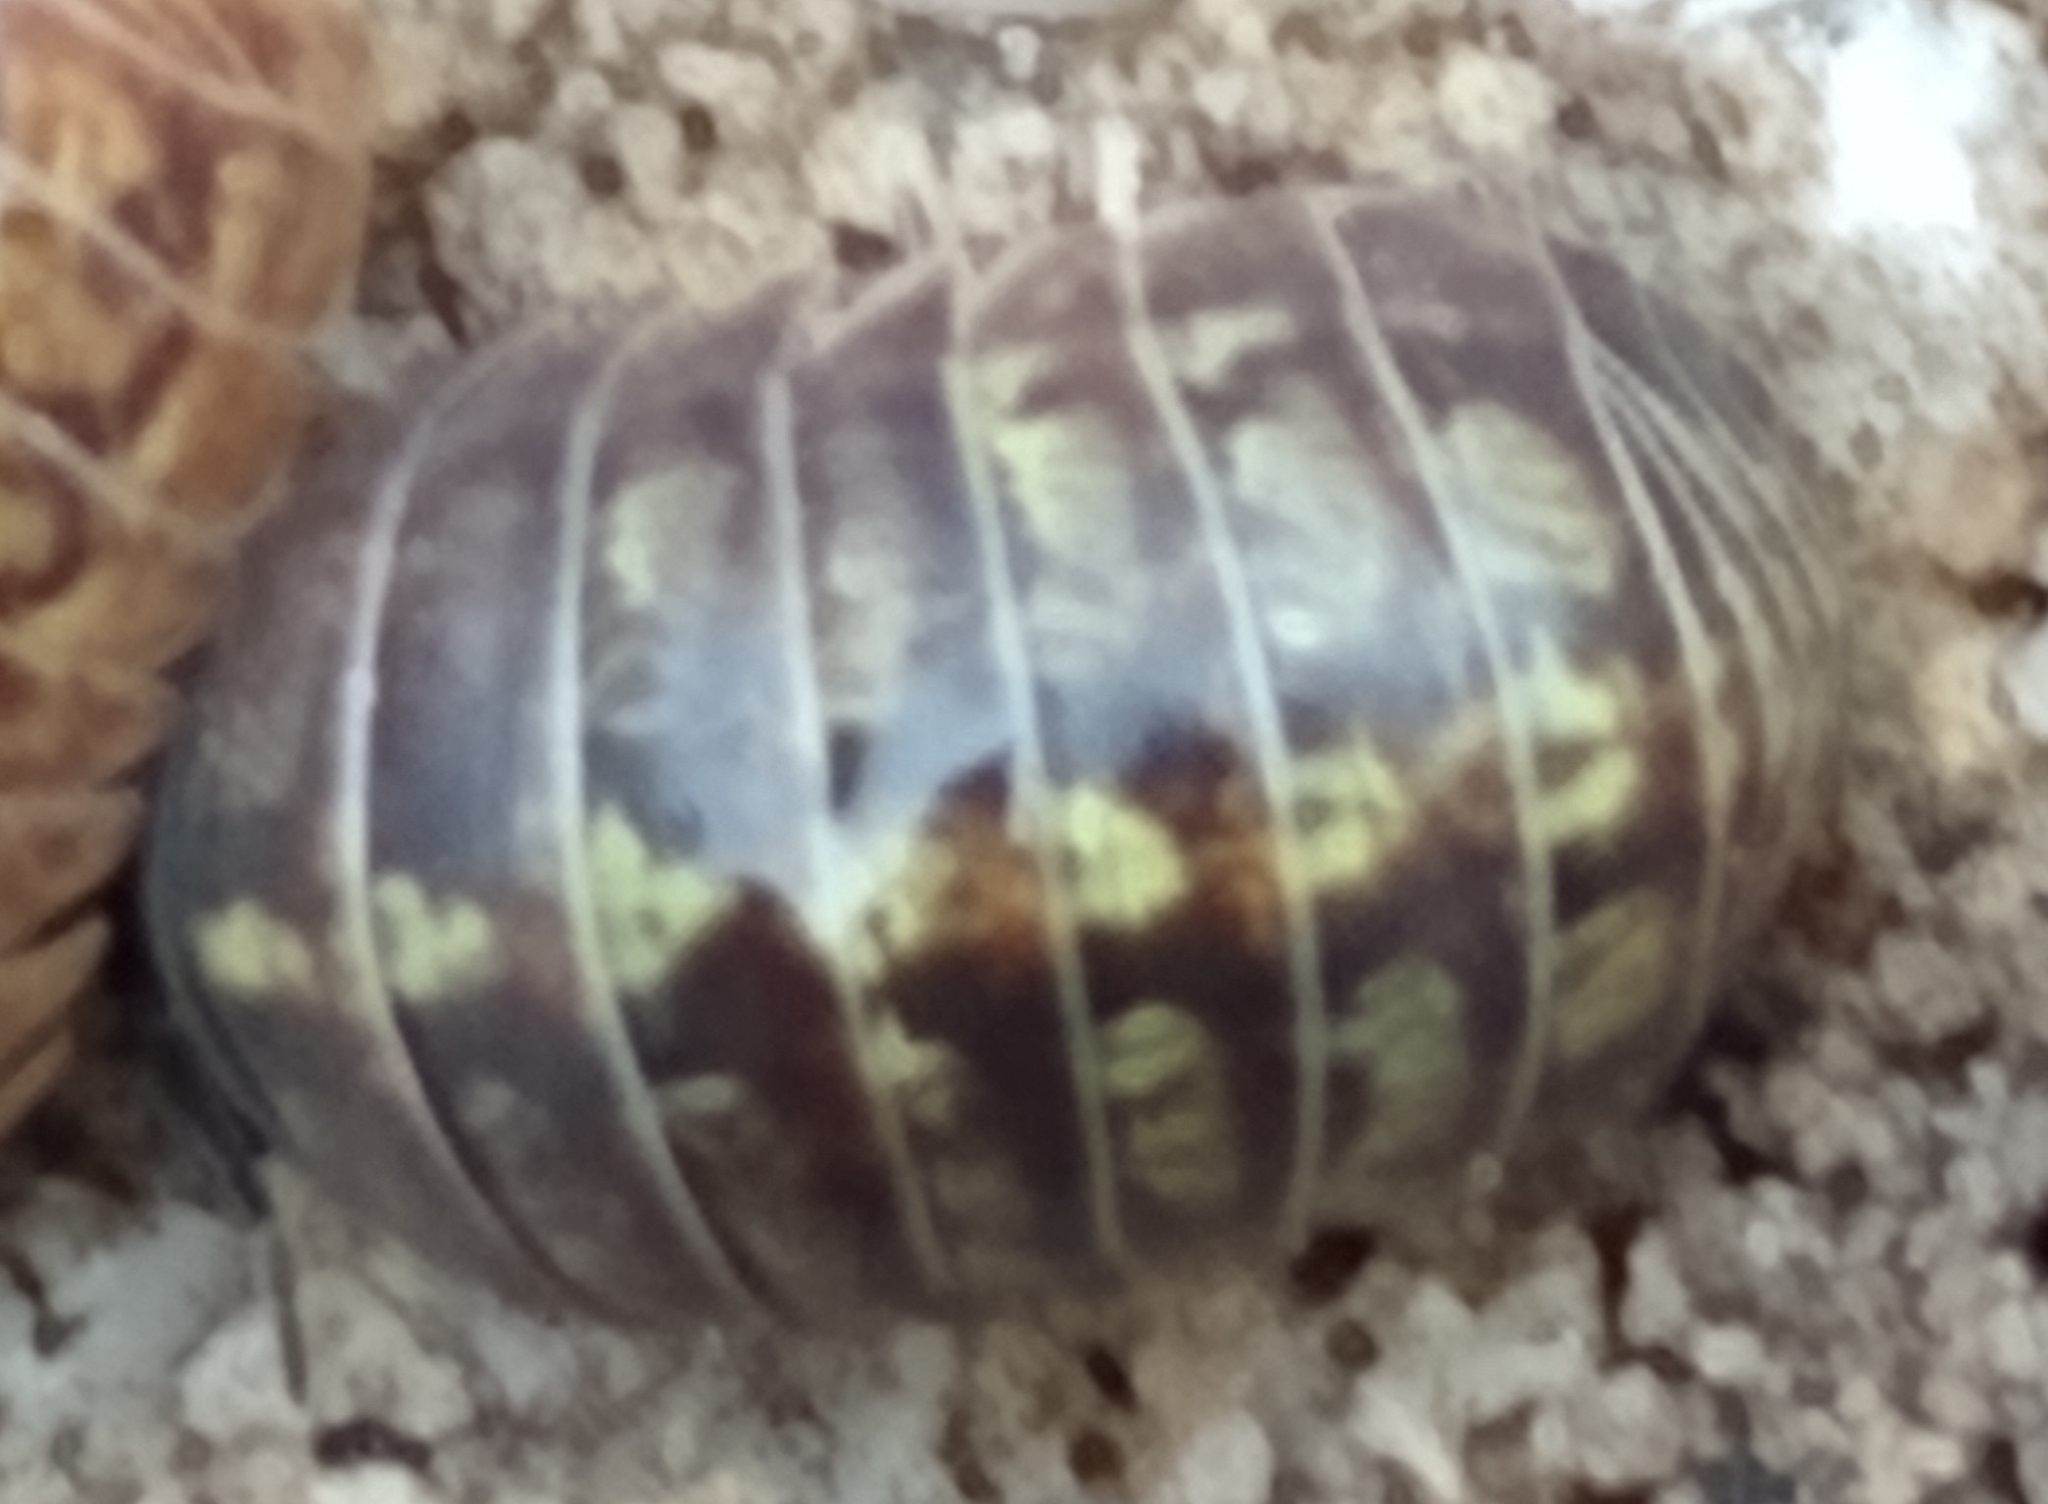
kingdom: Animalia
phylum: Arthropoda
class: Malacostraca
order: Isopoda
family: Armadillidiidae
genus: Armadillidium
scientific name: Armadillidium vulgare
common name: Common pill woodlouse
